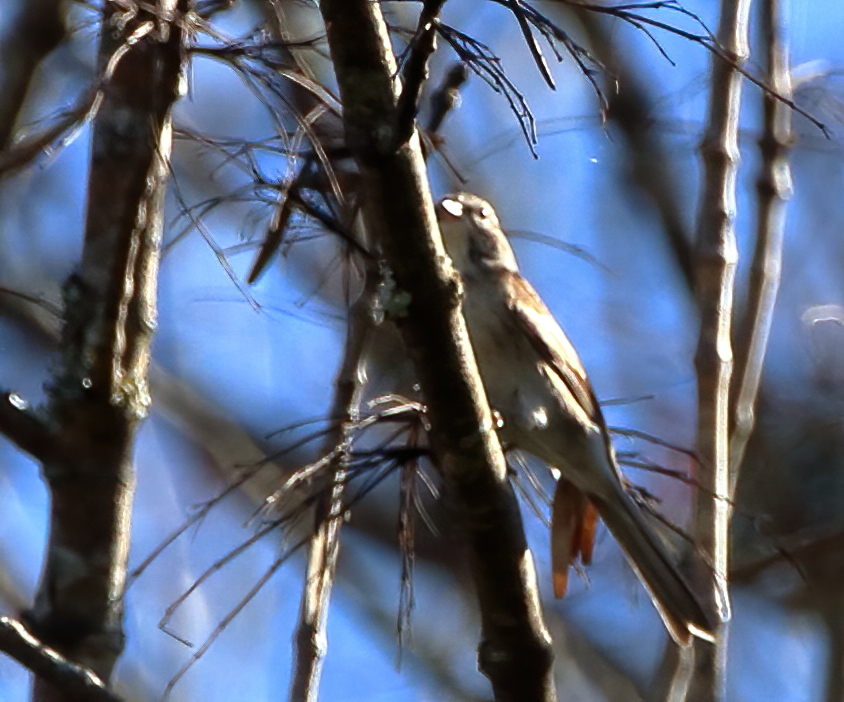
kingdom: Animalia
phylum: Chordata
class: Aves
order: Passeriformes
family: Passerellidae
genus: Spizella
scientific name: Spizella passerina
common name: Chipping sparrow
